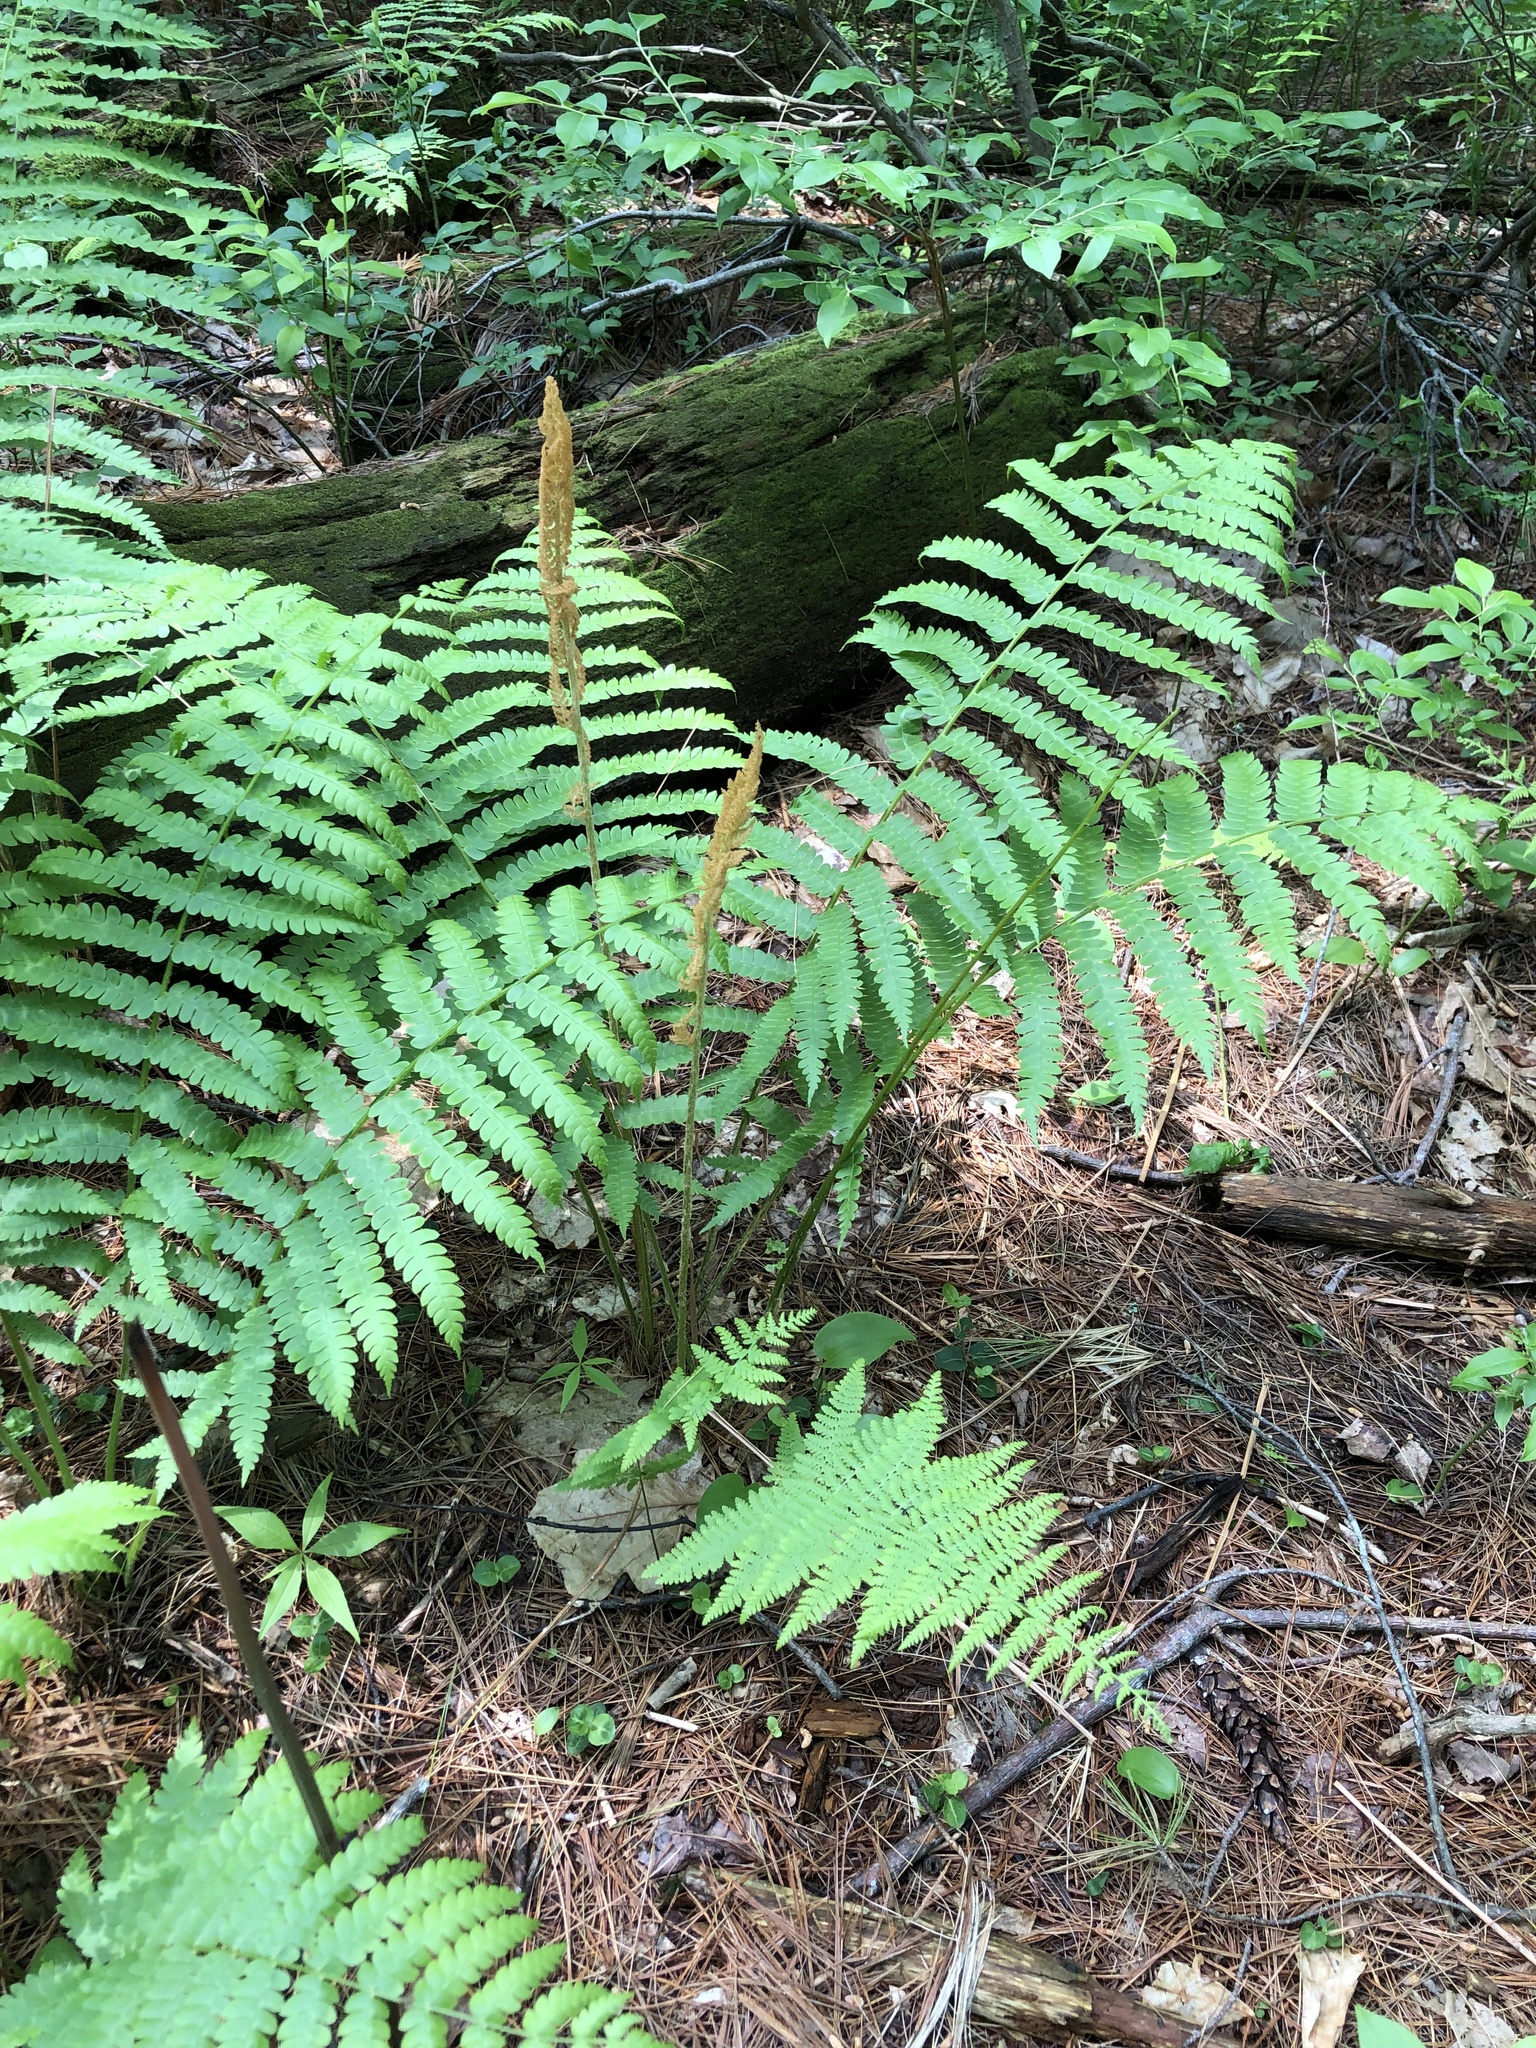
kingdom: Plantae
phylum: Tracheophyta
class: Polypodiopsida
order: Osmundales
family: Osmundaceae
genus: Osmundastrum
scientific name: Osmundastrum cinnamomeum
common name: Cinnamon fern
